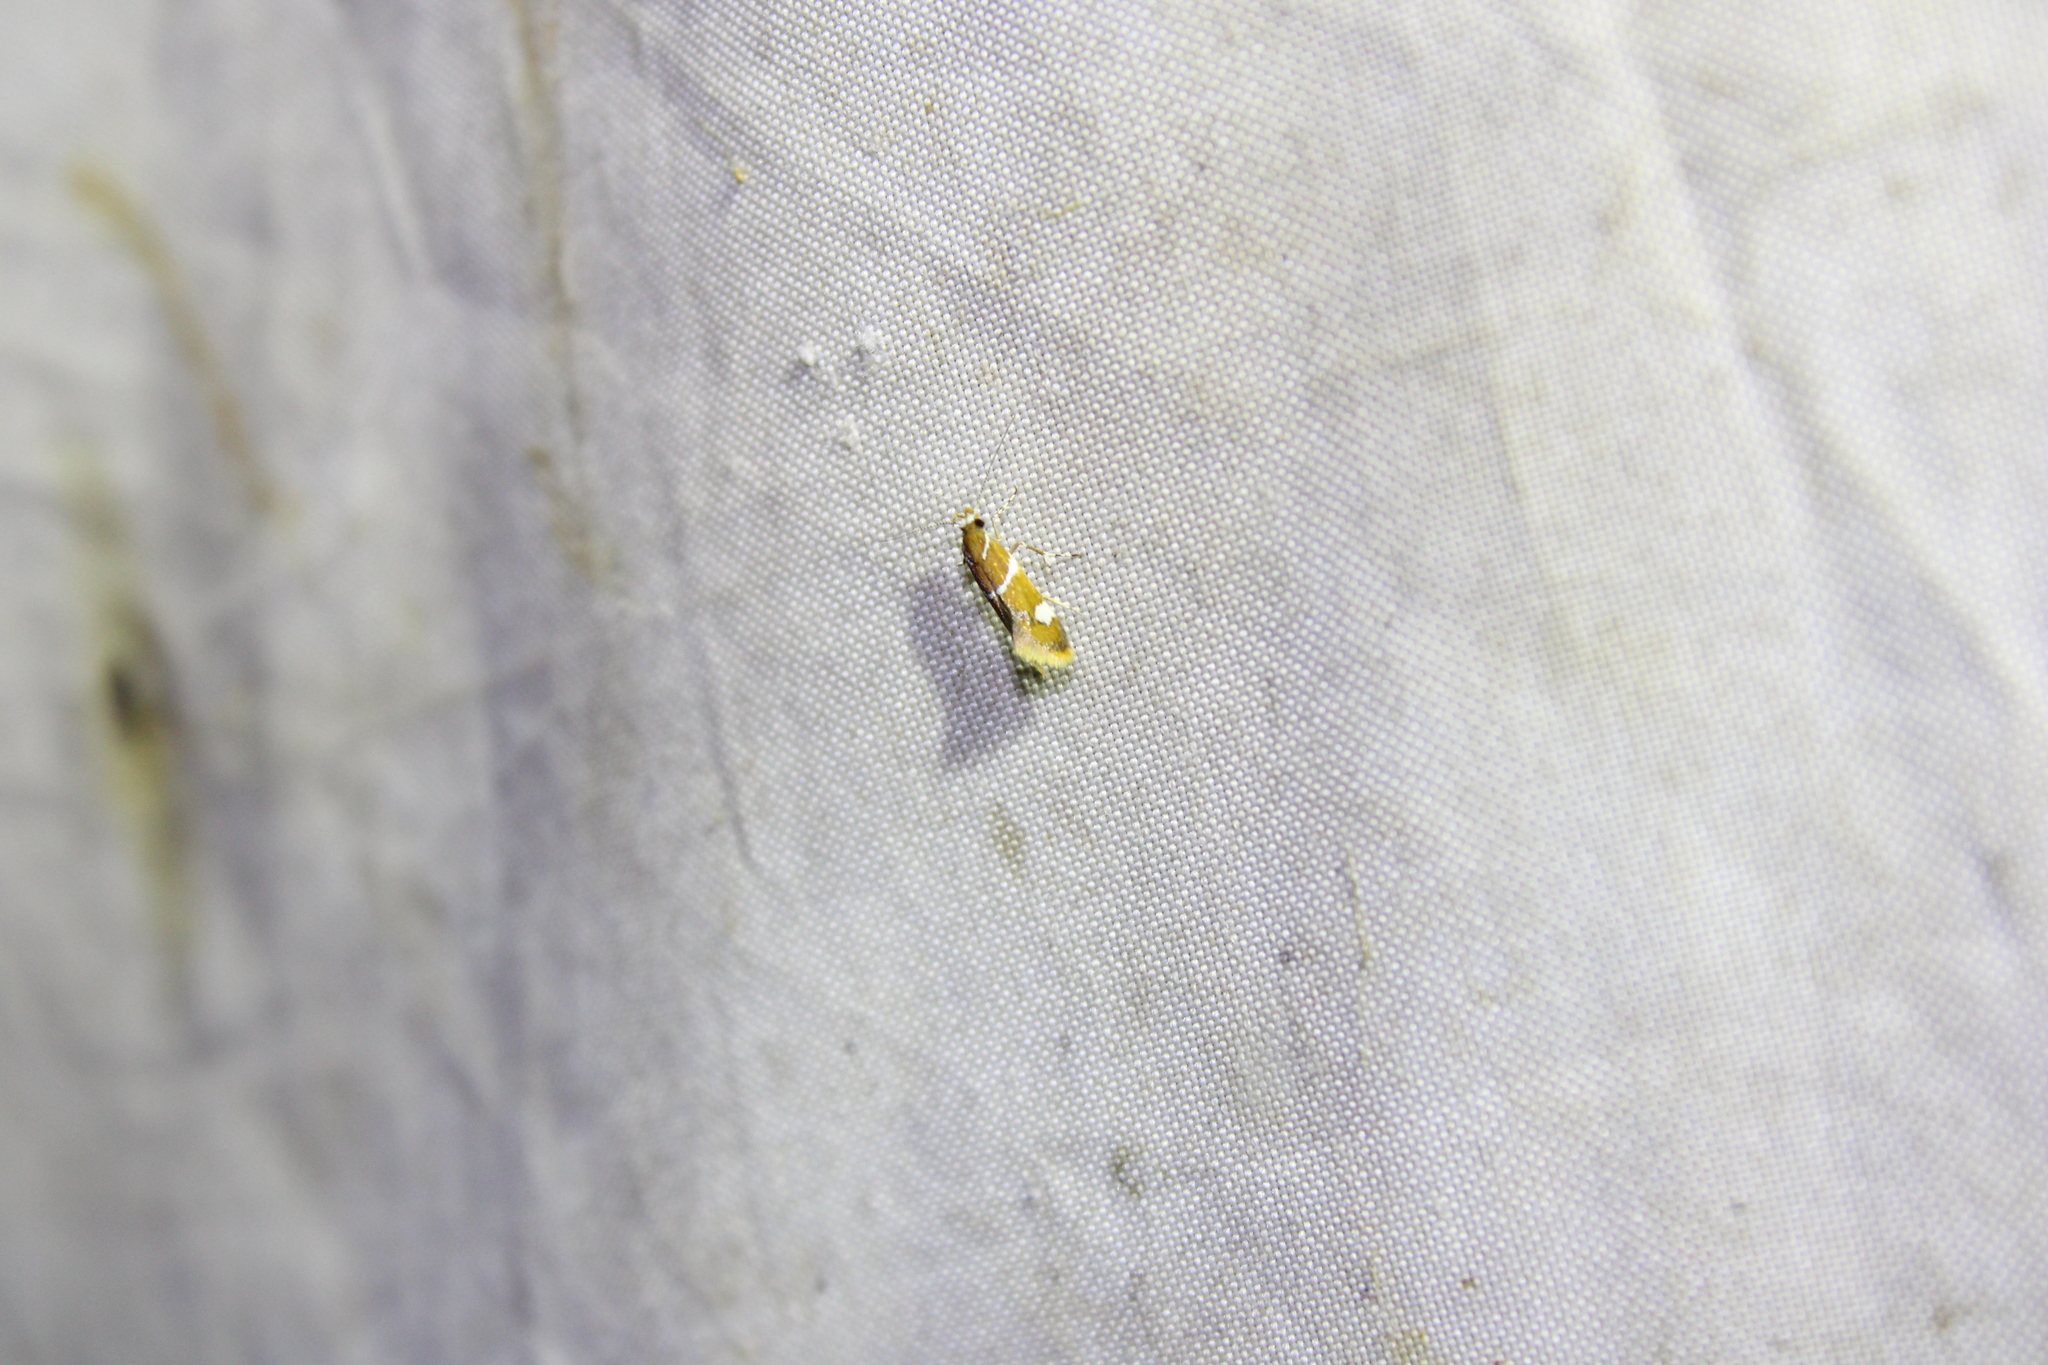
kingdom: Animalia
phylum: Arthropoda
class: Insecta
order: Lepidoptera
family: Oecophoridae
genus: Promalactis
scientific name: Promalactis suzukiella
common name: Moth
